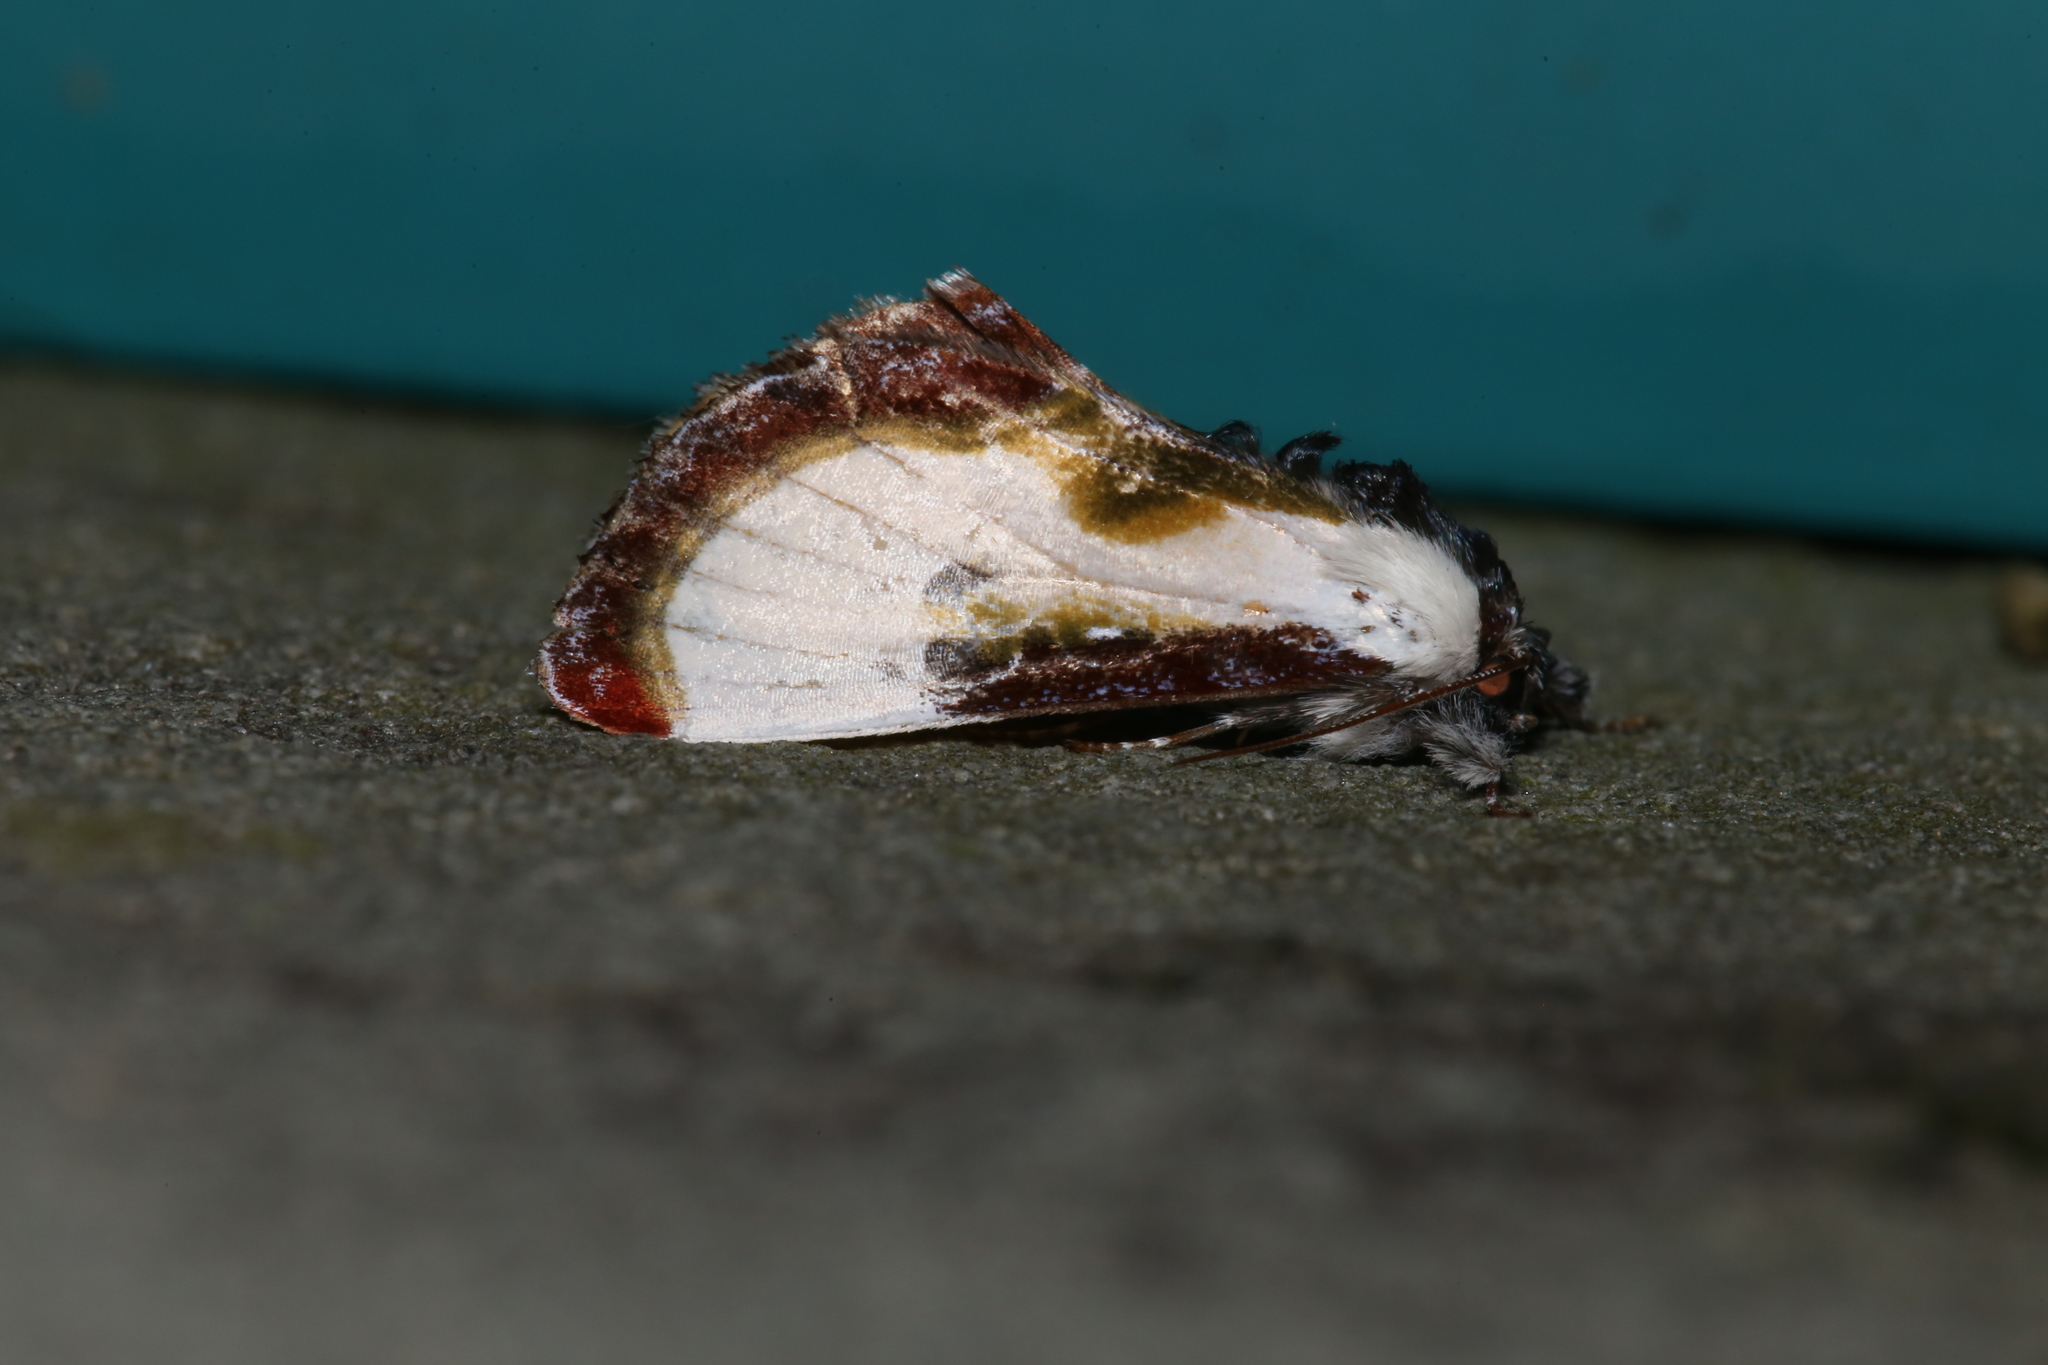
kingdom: Animalia
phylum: Arthropoda
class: Insecta
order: Lepidoptera
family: Noctuidae
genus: Eudryas
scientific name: Eudryas grata
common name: Beautiful wood-nymph
